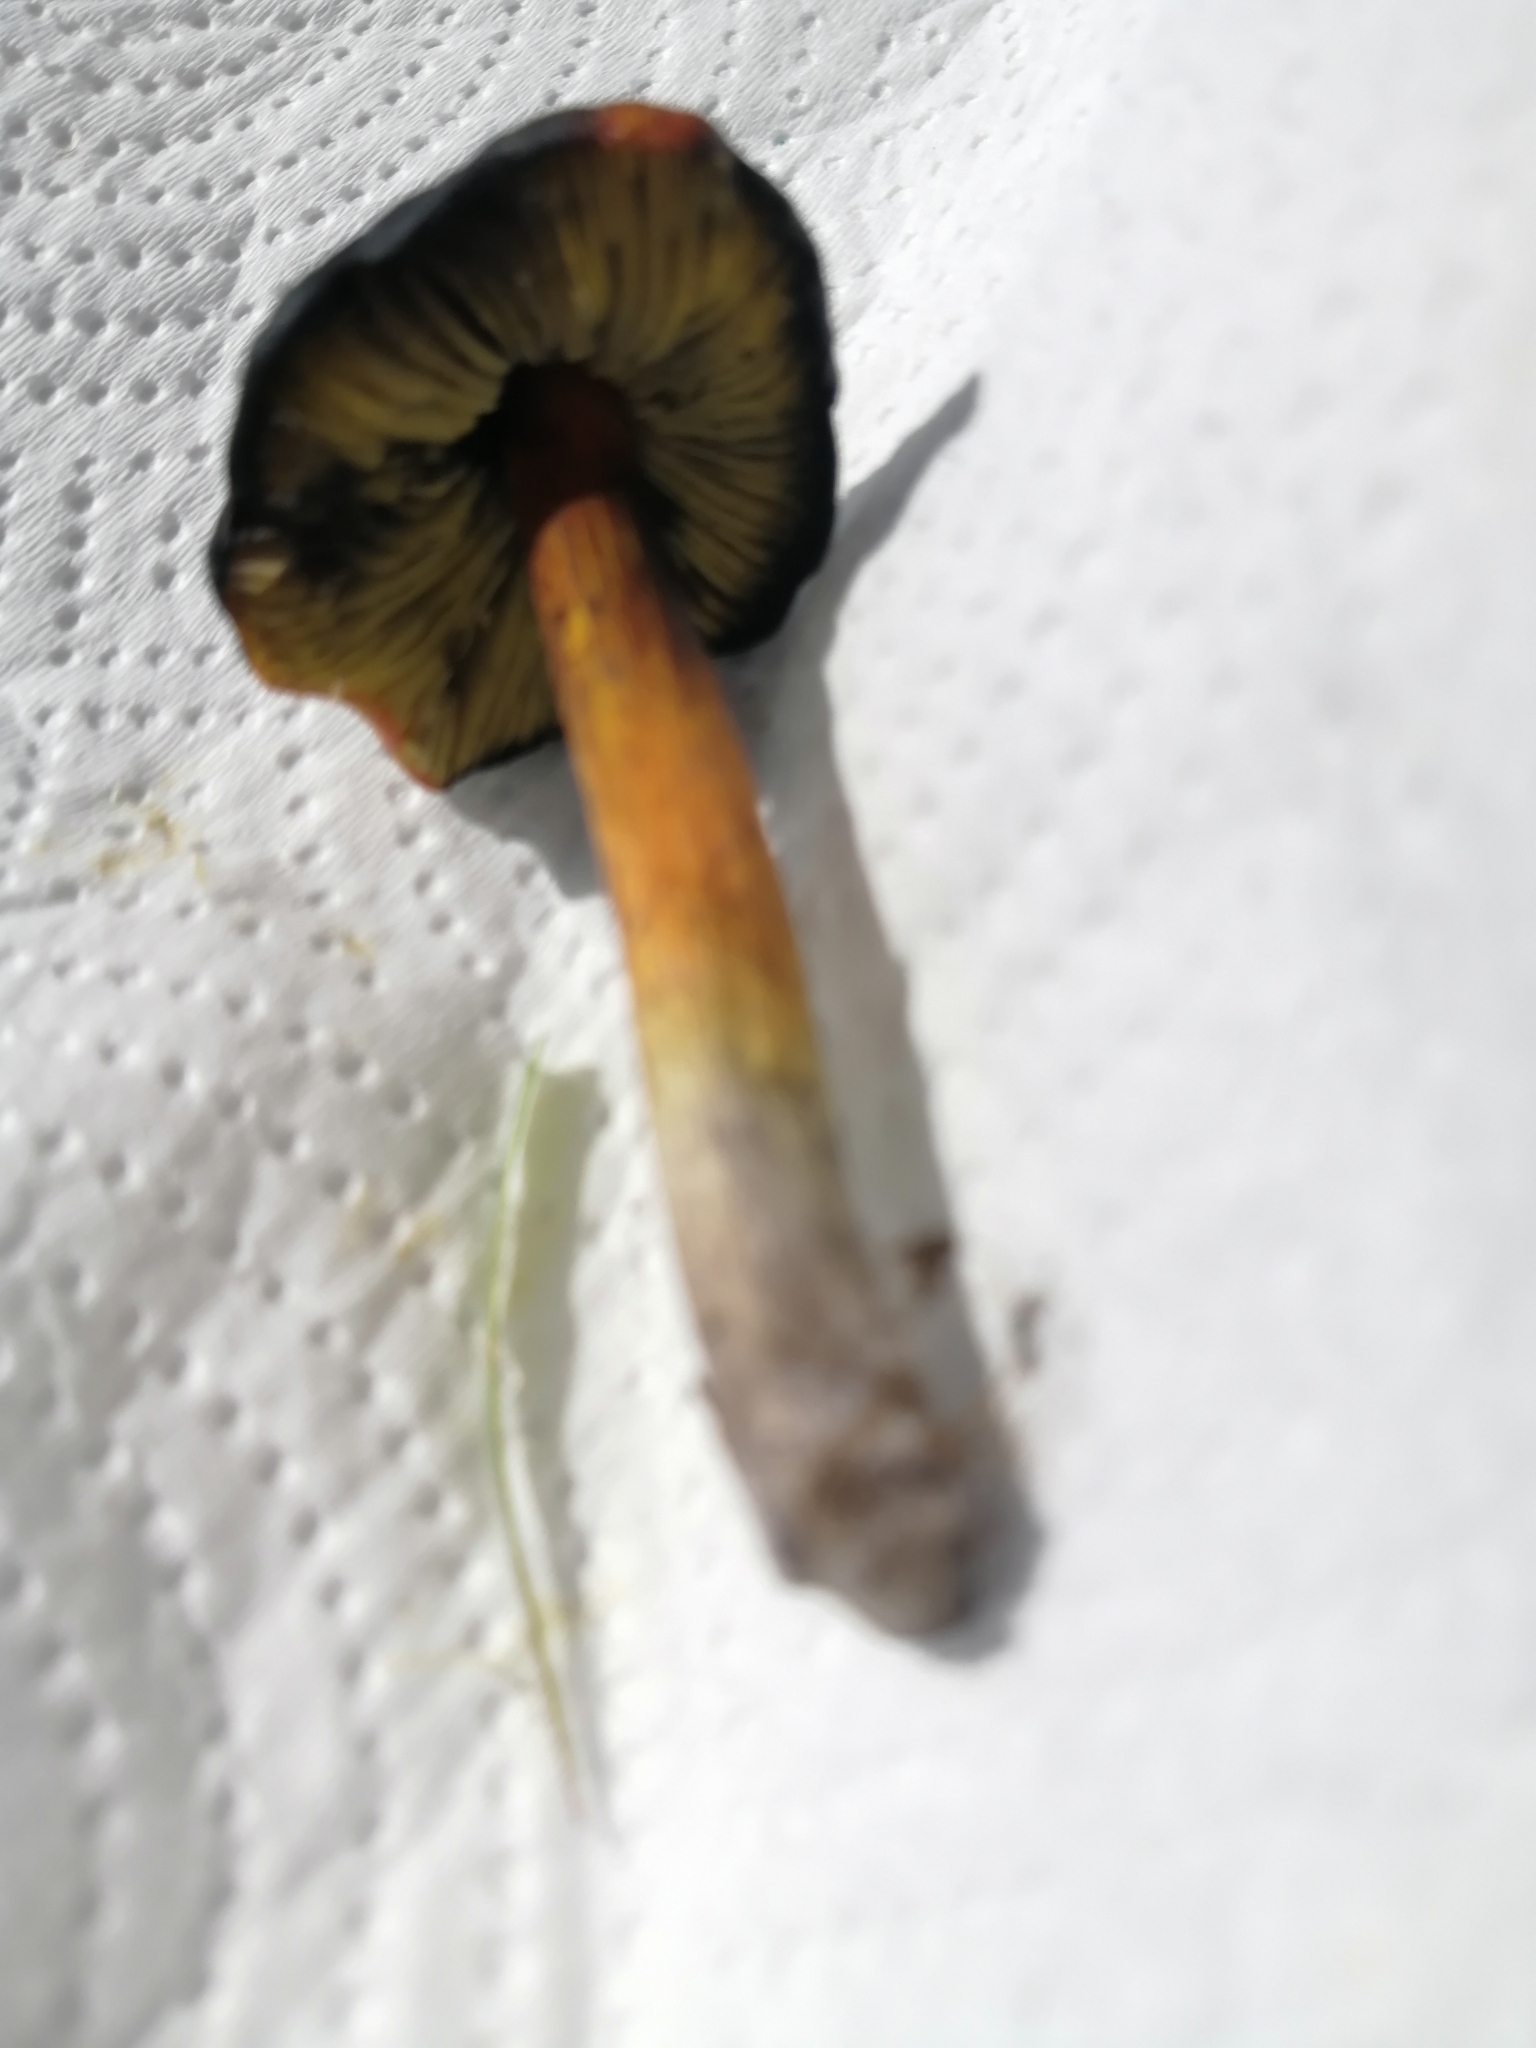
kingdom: Fungi
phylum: Basidiomycota
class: Agaricomycetes
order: Agaricales
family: Hygrophoraceae
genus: Hygrocybe
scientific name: Hygrocybe conica
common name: Blackening wax-cap
